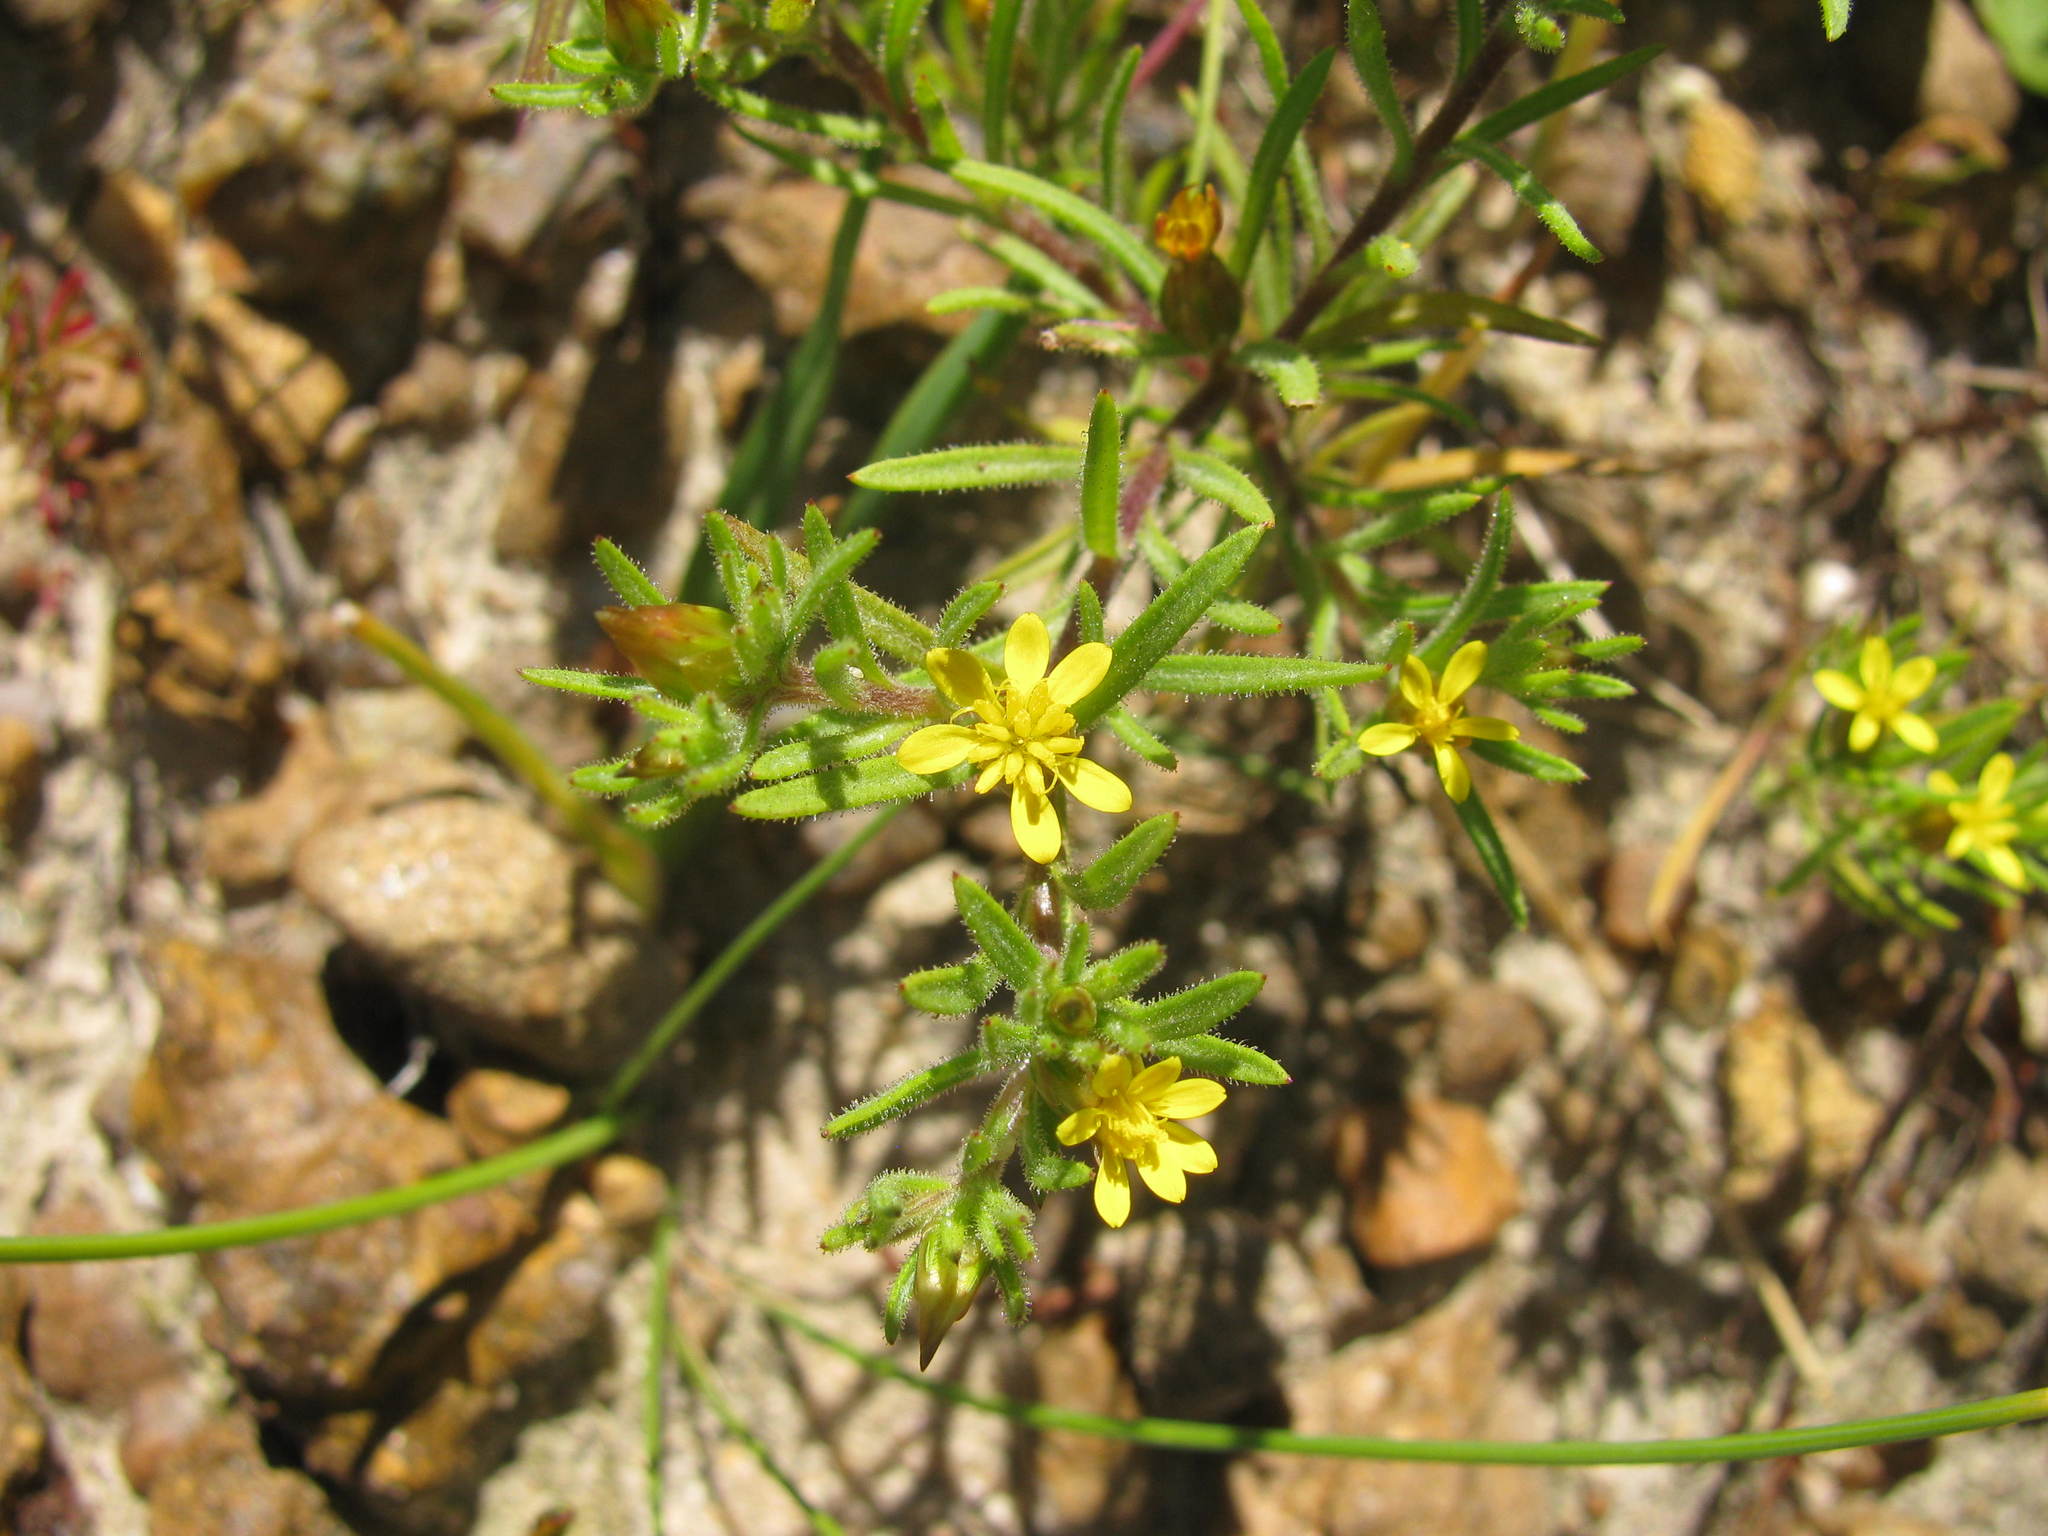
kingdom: Plantae
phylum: Tracheophyta
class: Magnoliopsida
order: Asterales
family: Asteraceae
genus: Rhynchopsidium
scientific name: Rhynchopsidium sessiliflorum
